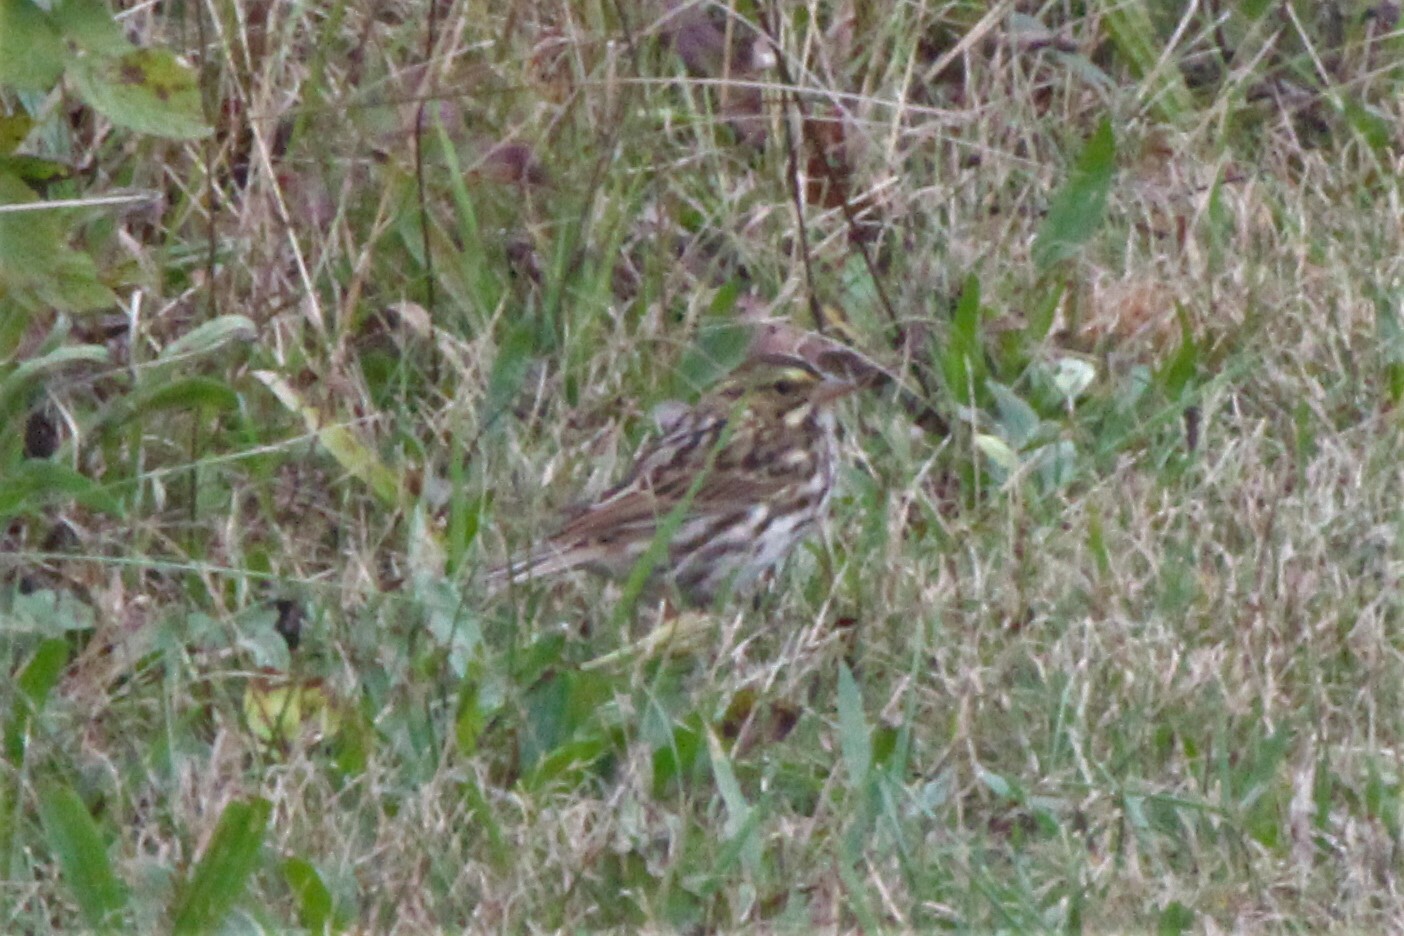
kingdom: Animalia
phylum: Chordata
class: Aves
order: Passeriformes
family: Passerellidae
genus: Passerculus
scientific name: Passerculus sandwichensis
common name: Savannah sparrow
